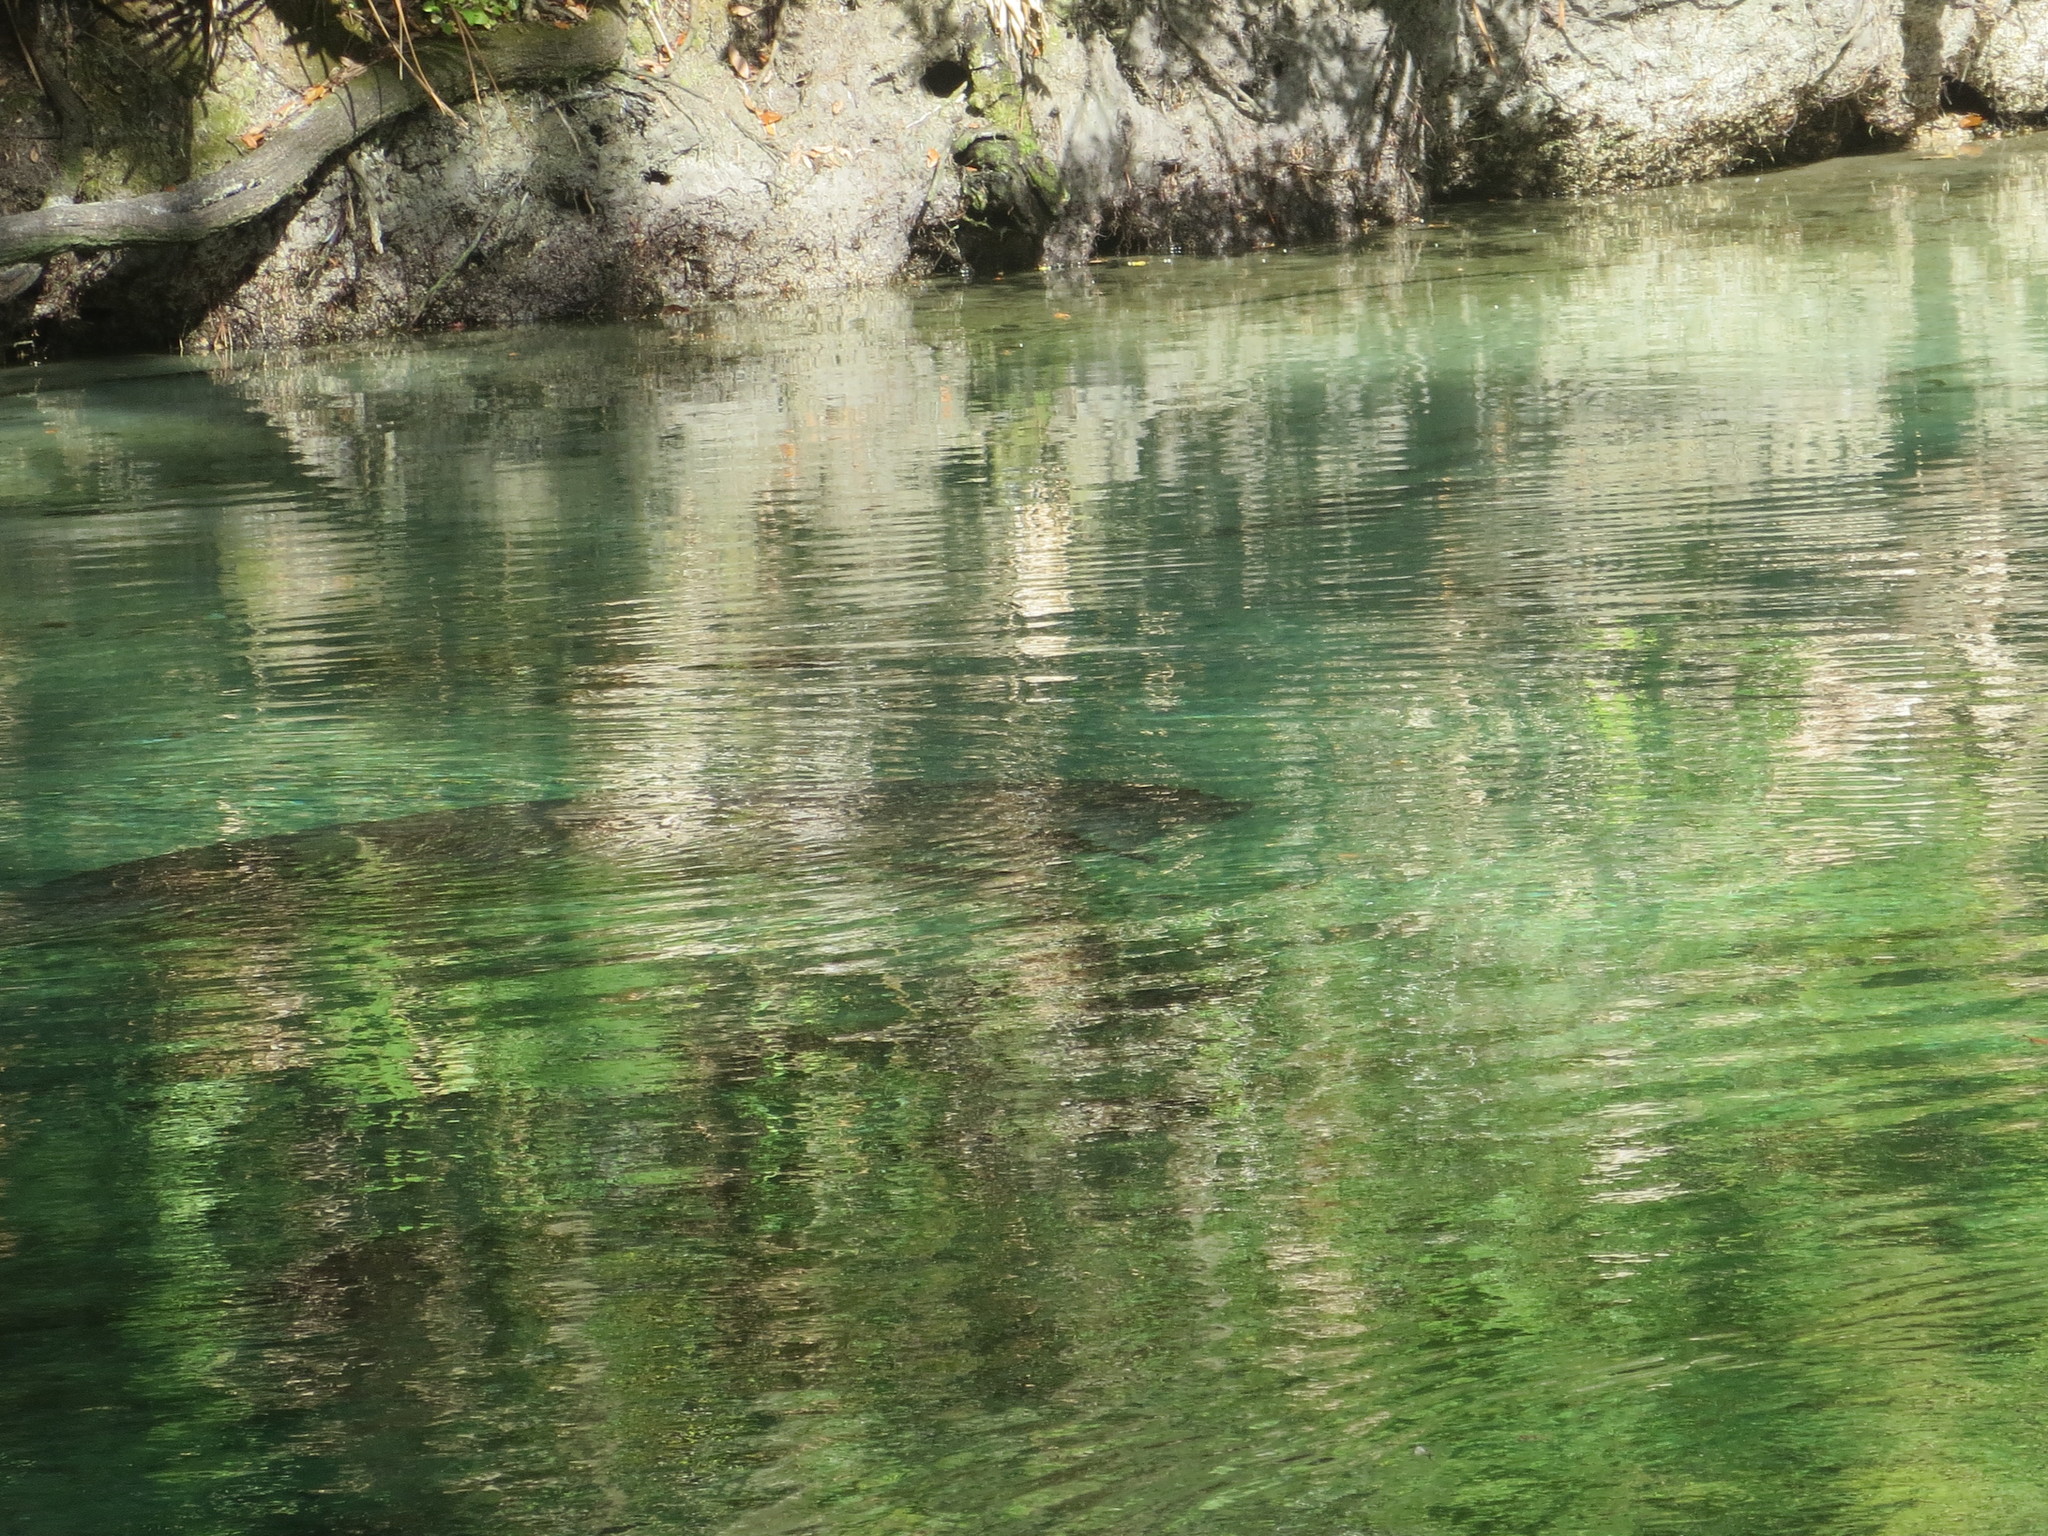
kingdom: Animalia
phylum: Chordata
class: Mammalia
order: Sirenia
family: Trichechidae
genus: Trichechus
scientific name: Trichechus manatus
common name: West indian manatee
